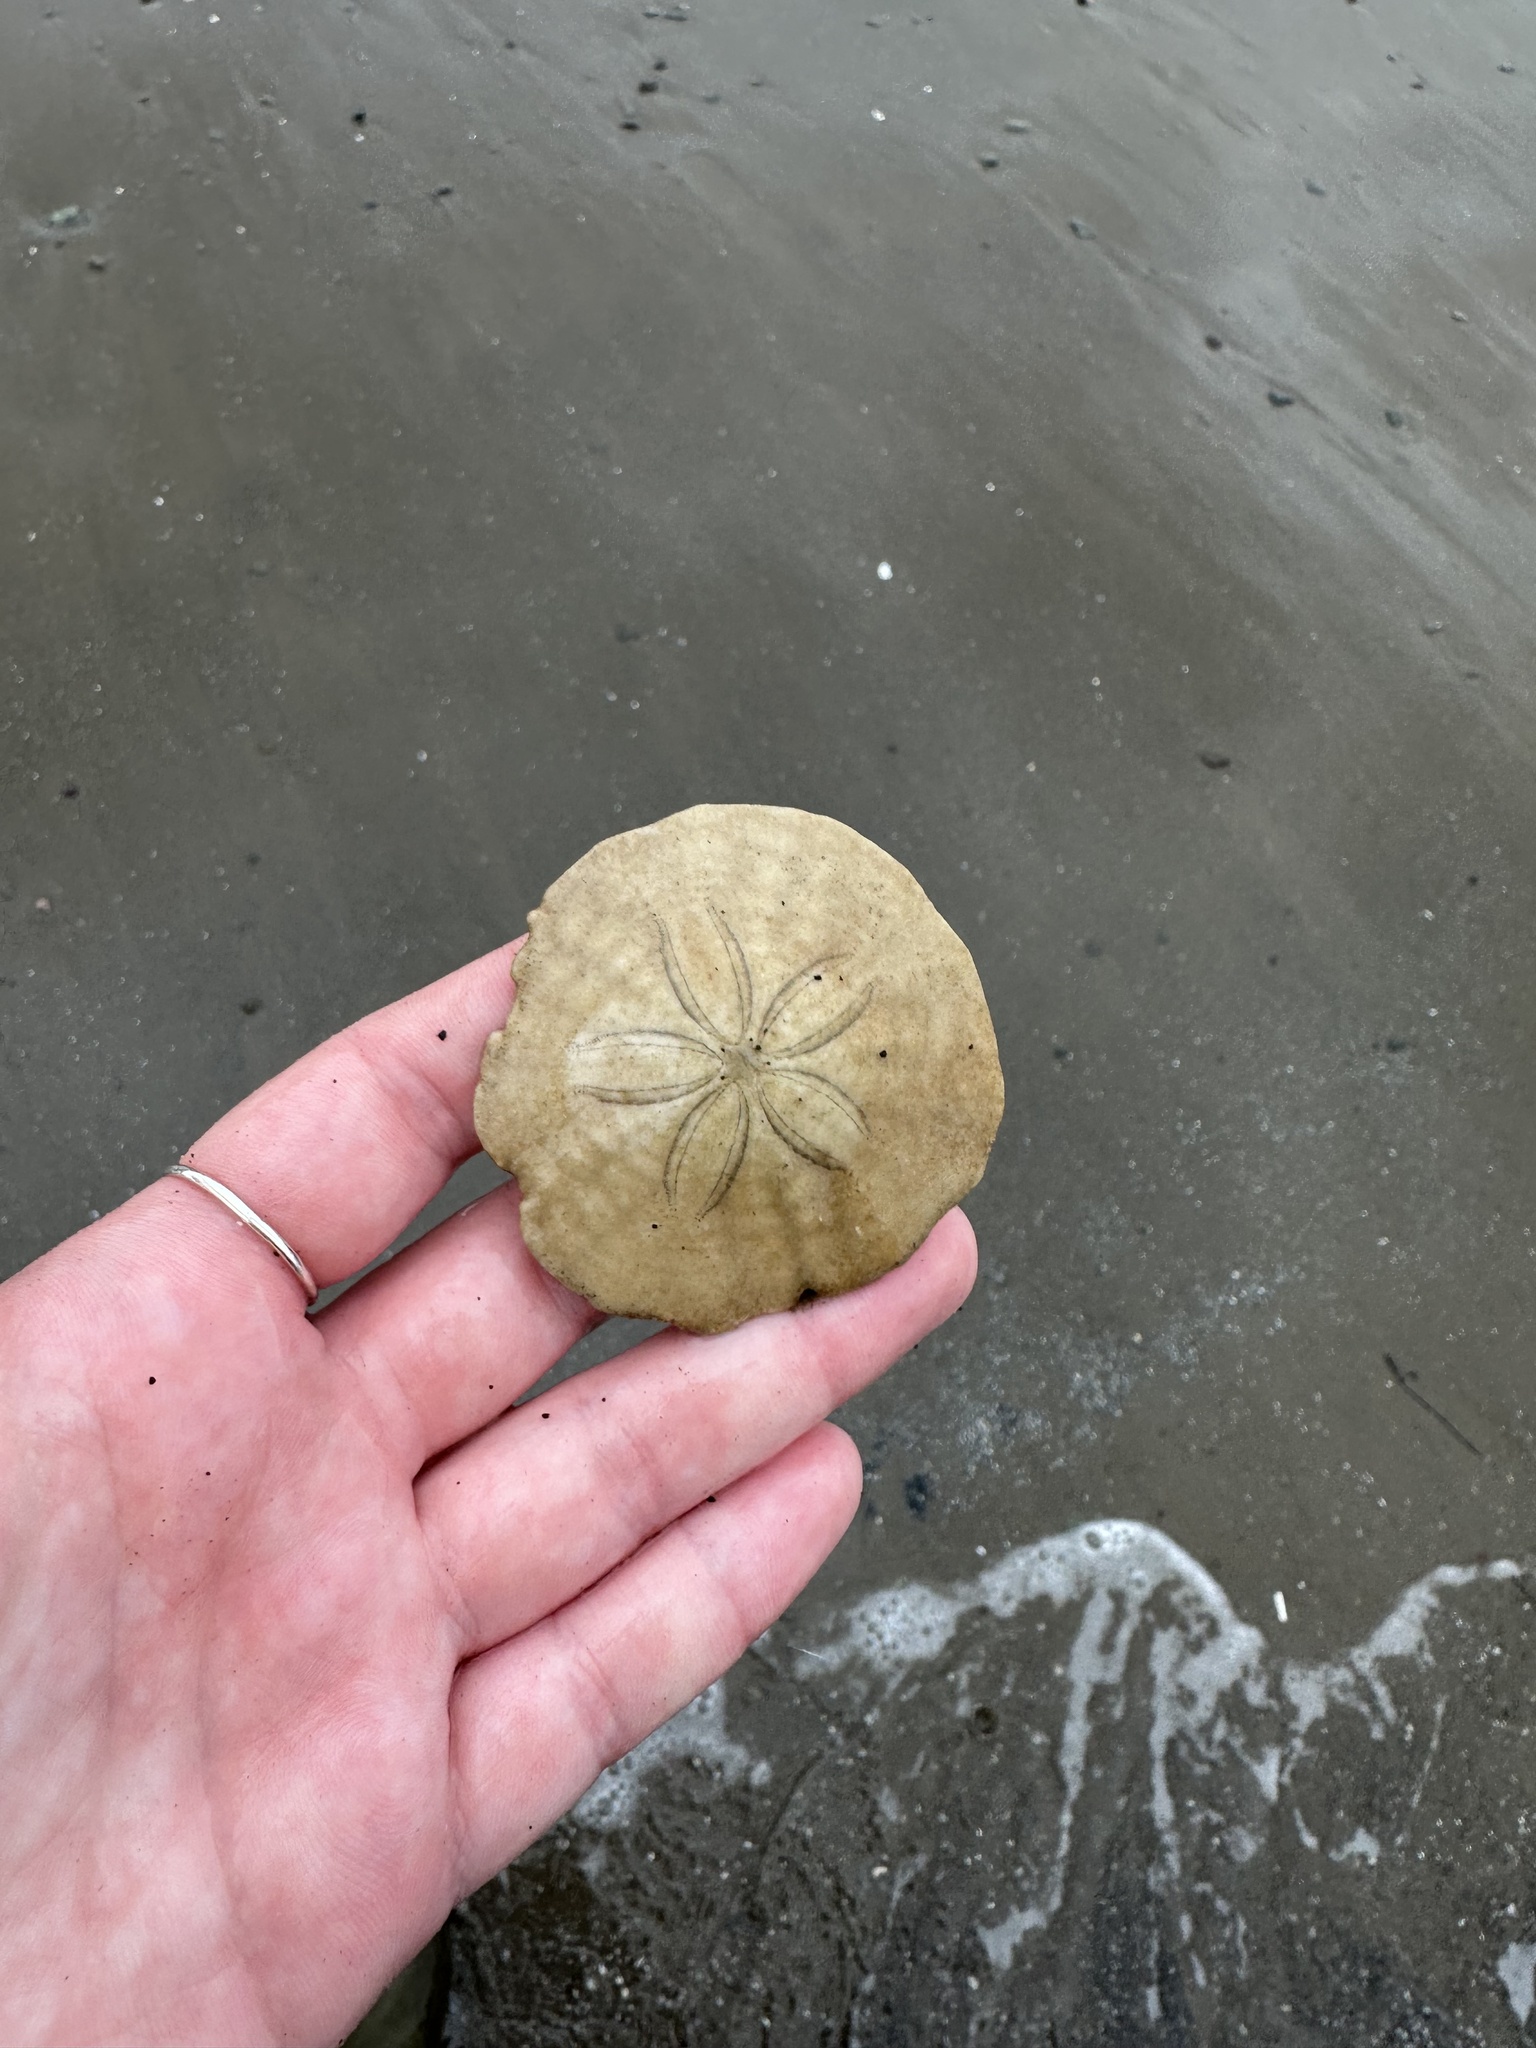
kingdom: Animalia
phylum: Echinodermata
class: Echinoidea
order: Echinolampadacea
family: Echinarachniidae
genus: Echinarachnius
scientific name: Echinarachnius parma
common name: Common sand dollar
